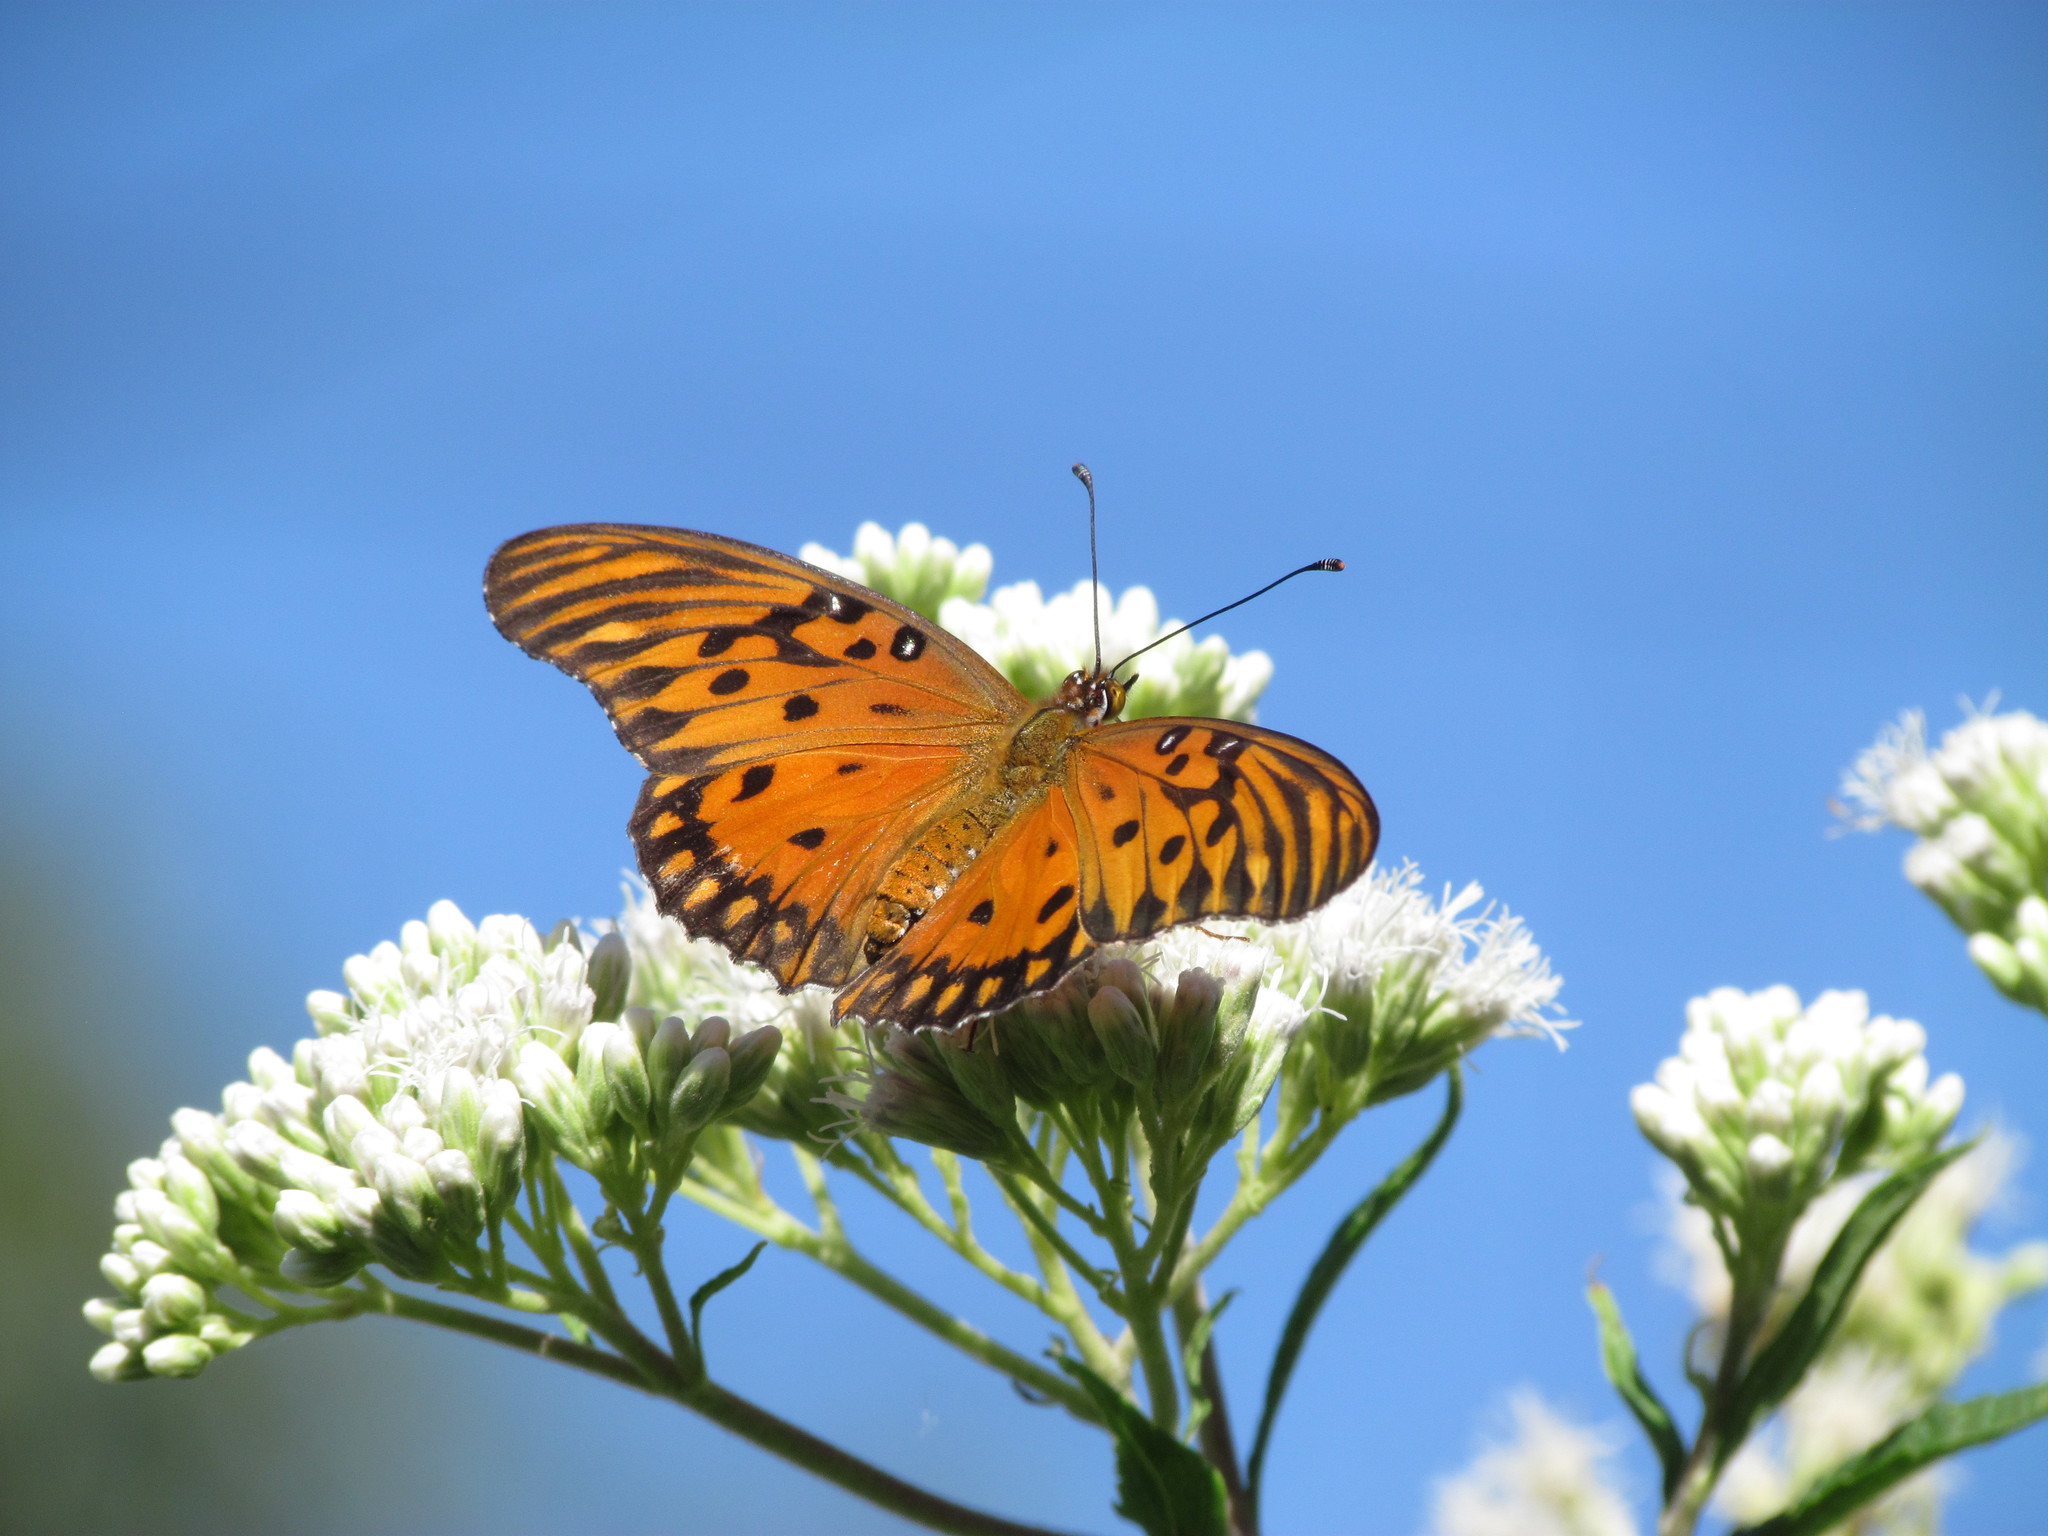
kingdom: Animalia
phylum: Arthropoda
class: Insecta
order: Lepidoptera
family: Nymphalidae
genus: Dione
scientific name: Dione vanillae
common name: Gulf fritillary
